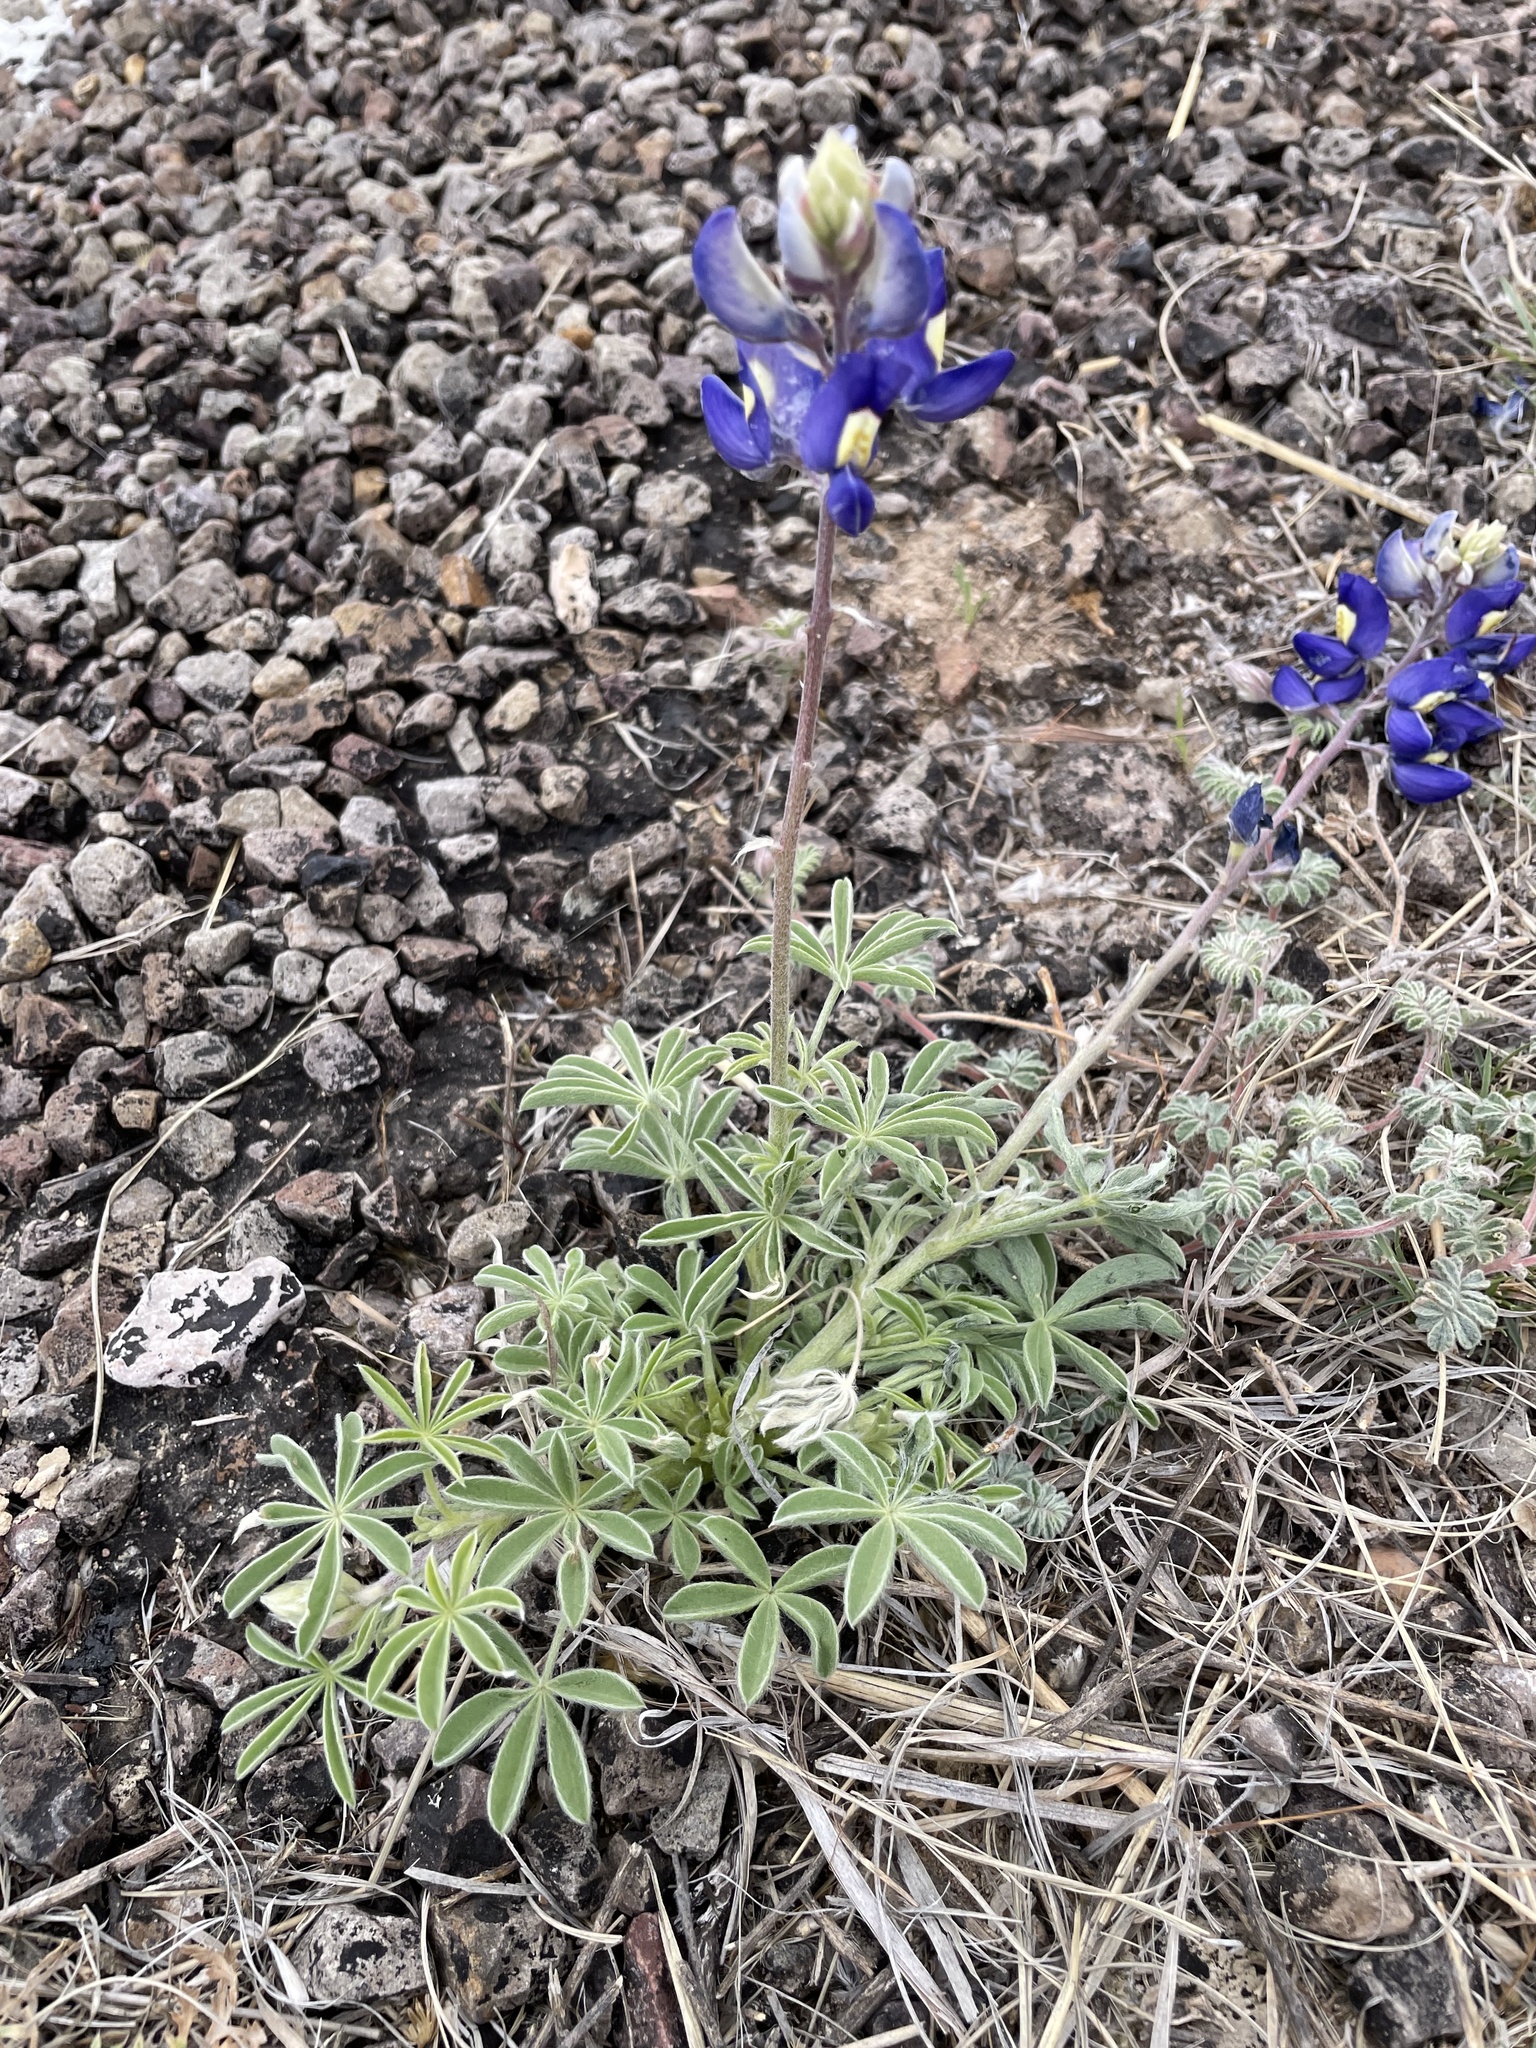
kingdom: Plantae
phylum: Tracheophyta
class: Magnoliopsida
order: Fabales
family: Fabaceae
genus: Lupinus
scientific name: Lupinus havardii
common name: Chisos bluebonnet
